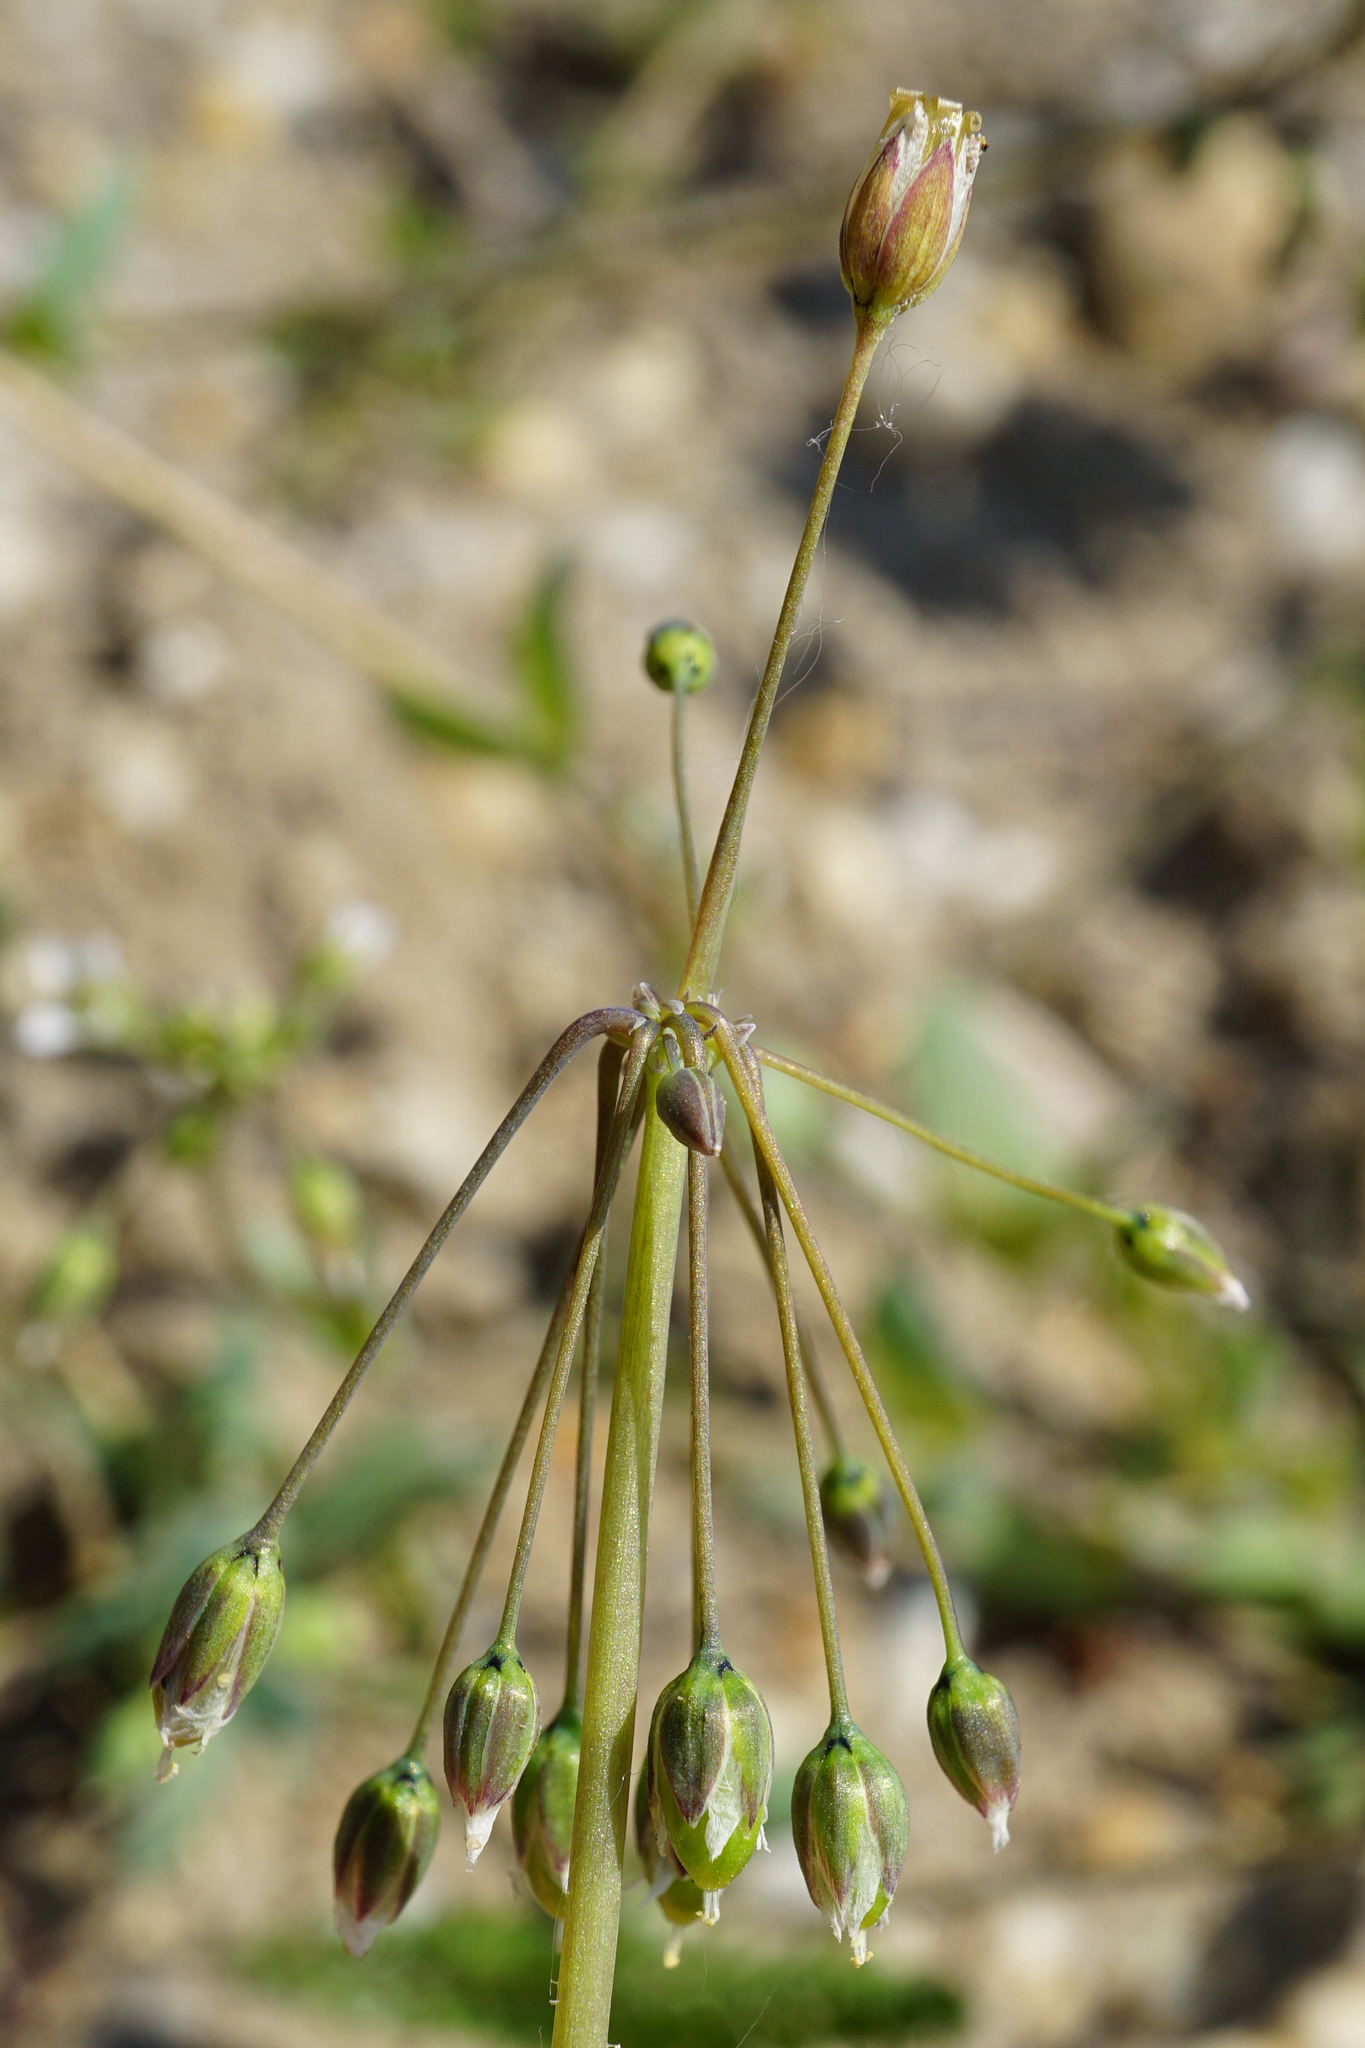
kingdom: Plantae
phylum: Tracheophyta
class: Magnoliopsida
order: Caryophyllales
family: Caryophyllaceae
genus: Holosteum
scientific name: Holosteum umbellatum
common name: Jagged chickweed
